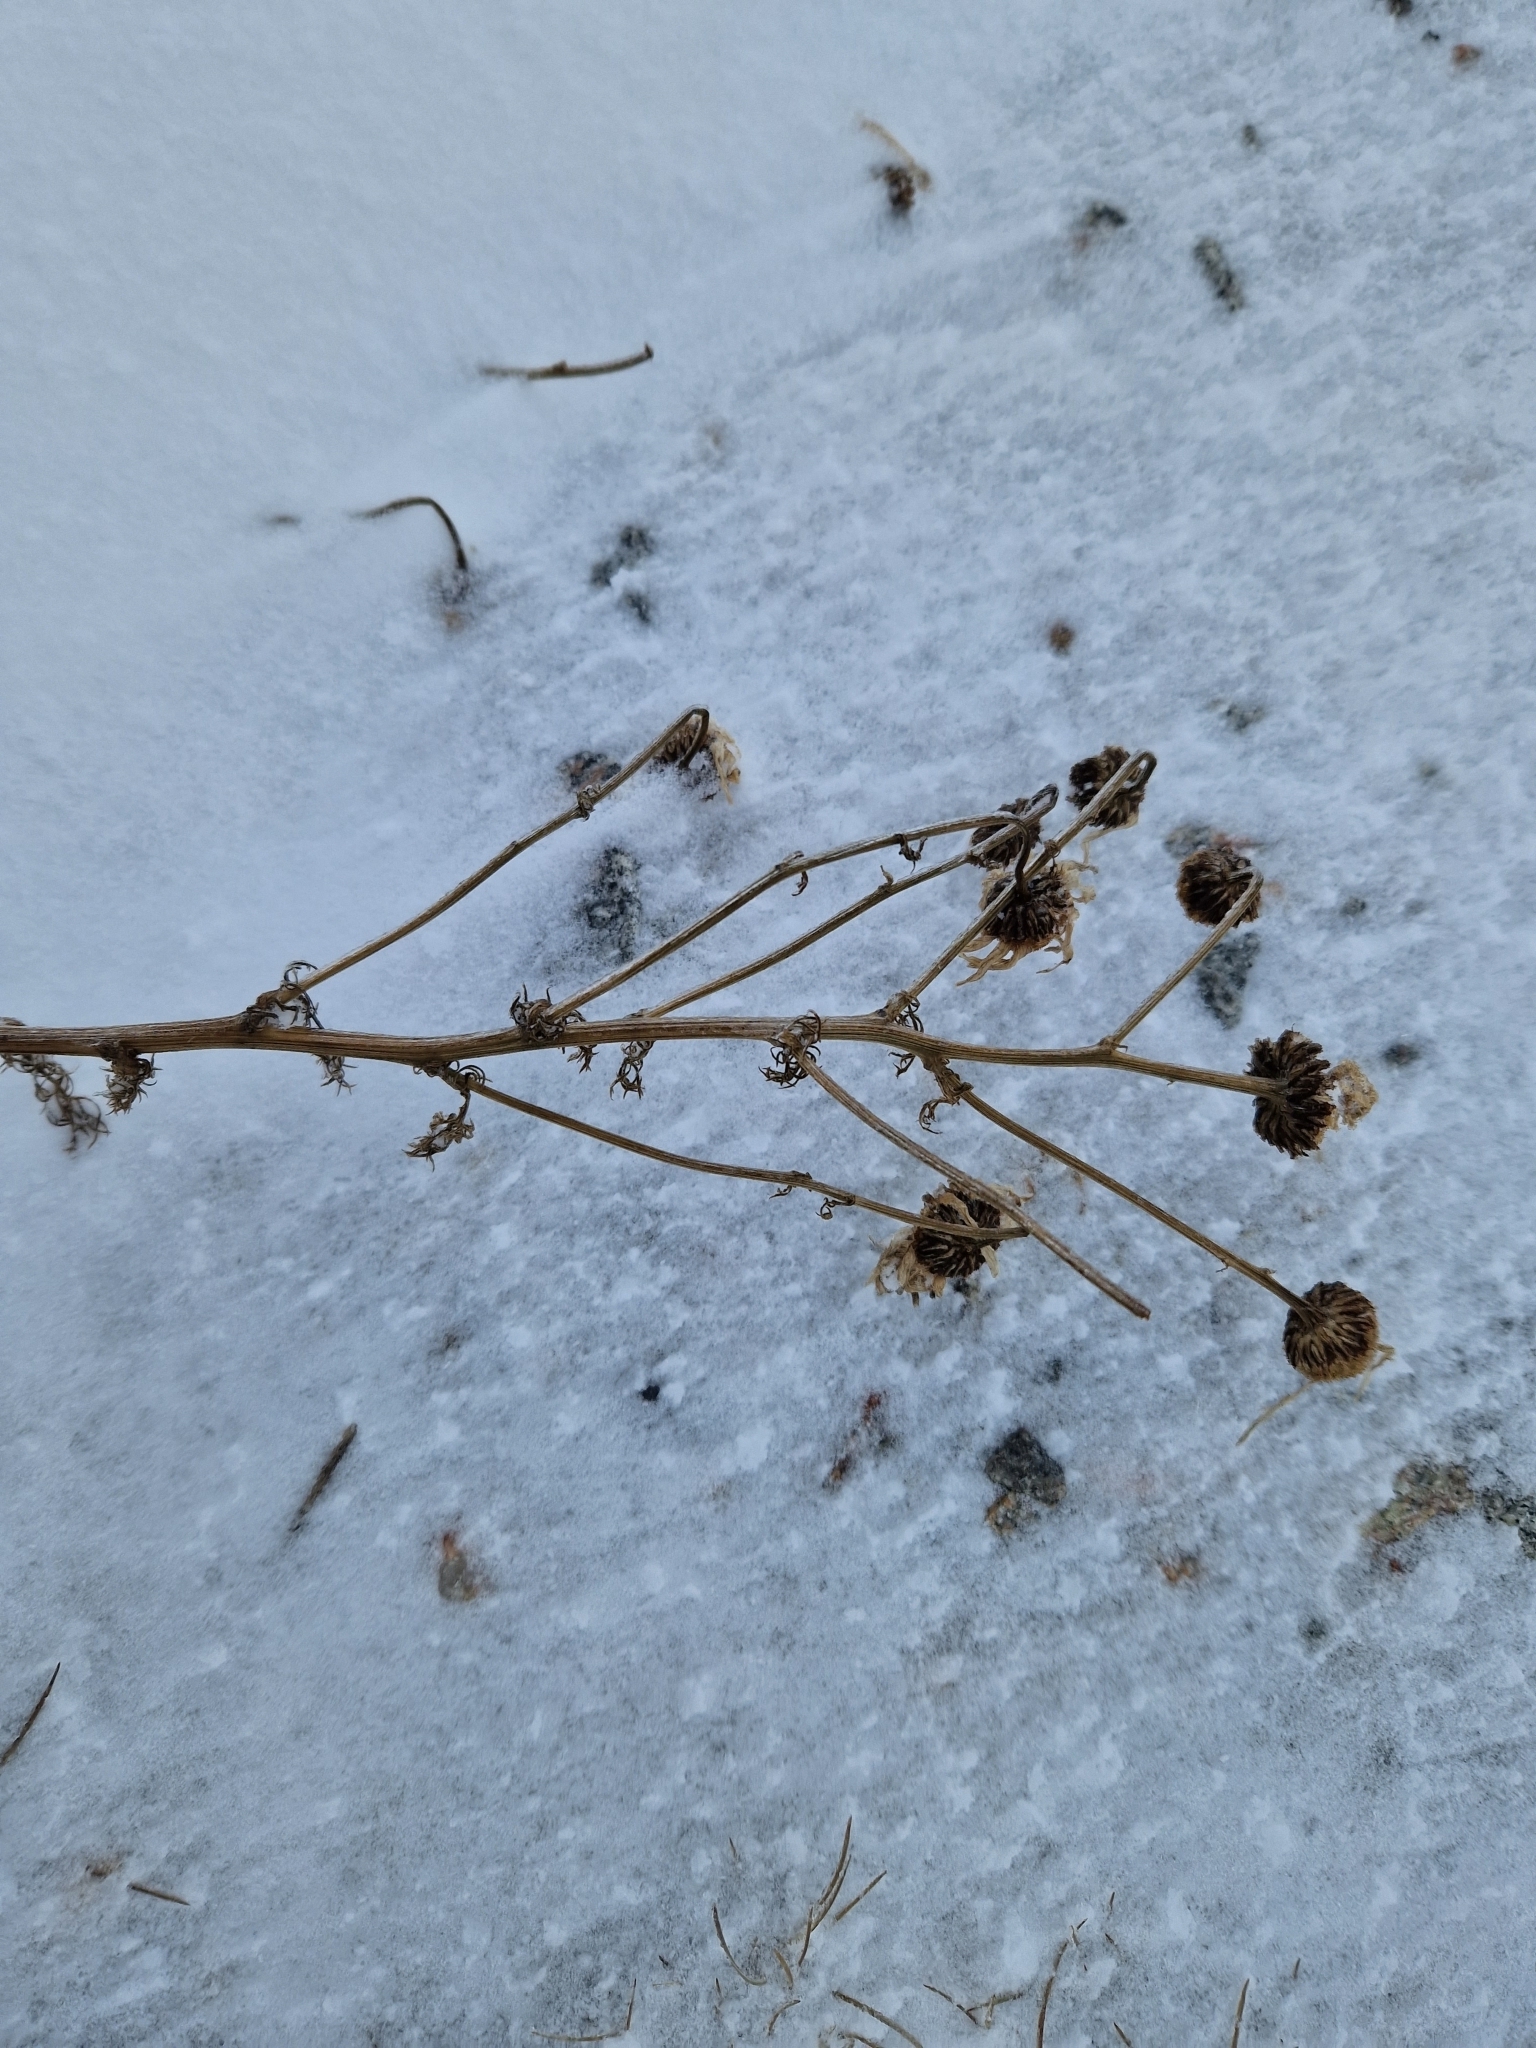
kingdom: Plantae
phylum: Tracheophyta
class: Magnoliopsida
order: Asterales
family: Asteraceae
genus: Tripleurospermum
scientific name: Tripleurospermum maritimum
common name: Sea mayweed
